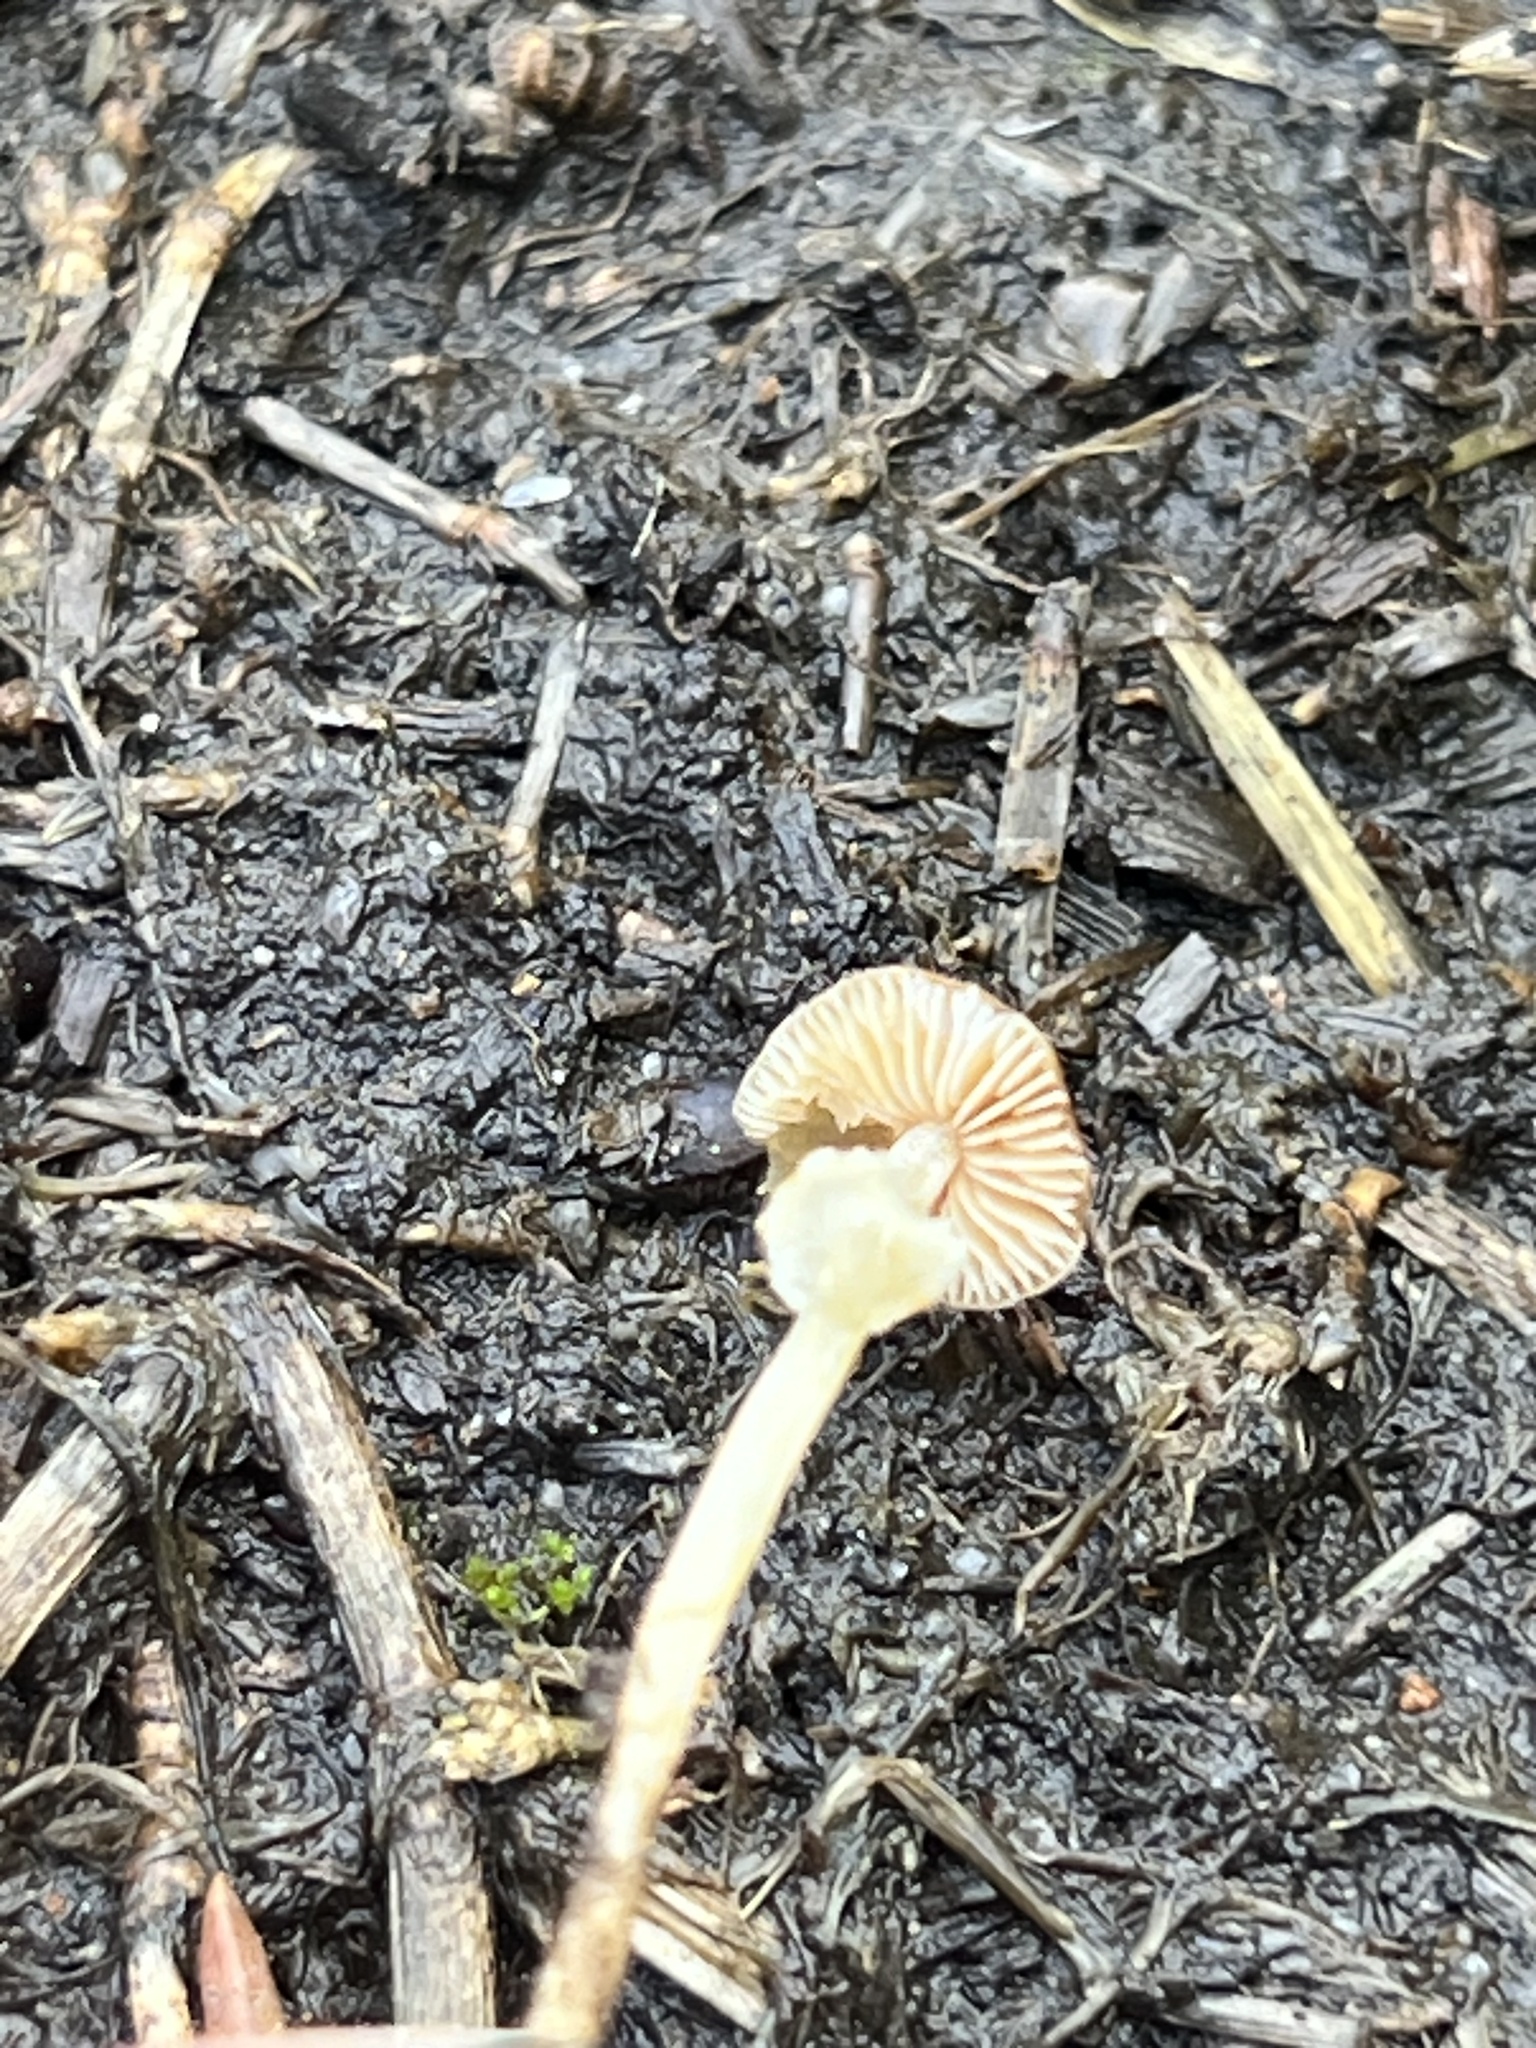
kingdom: Fungi
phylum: Basidiomycota
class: Agaricomycetes
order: Agaricales
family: Bolbitiaceae
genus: Conocybe
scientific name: Conocybe rugosa
